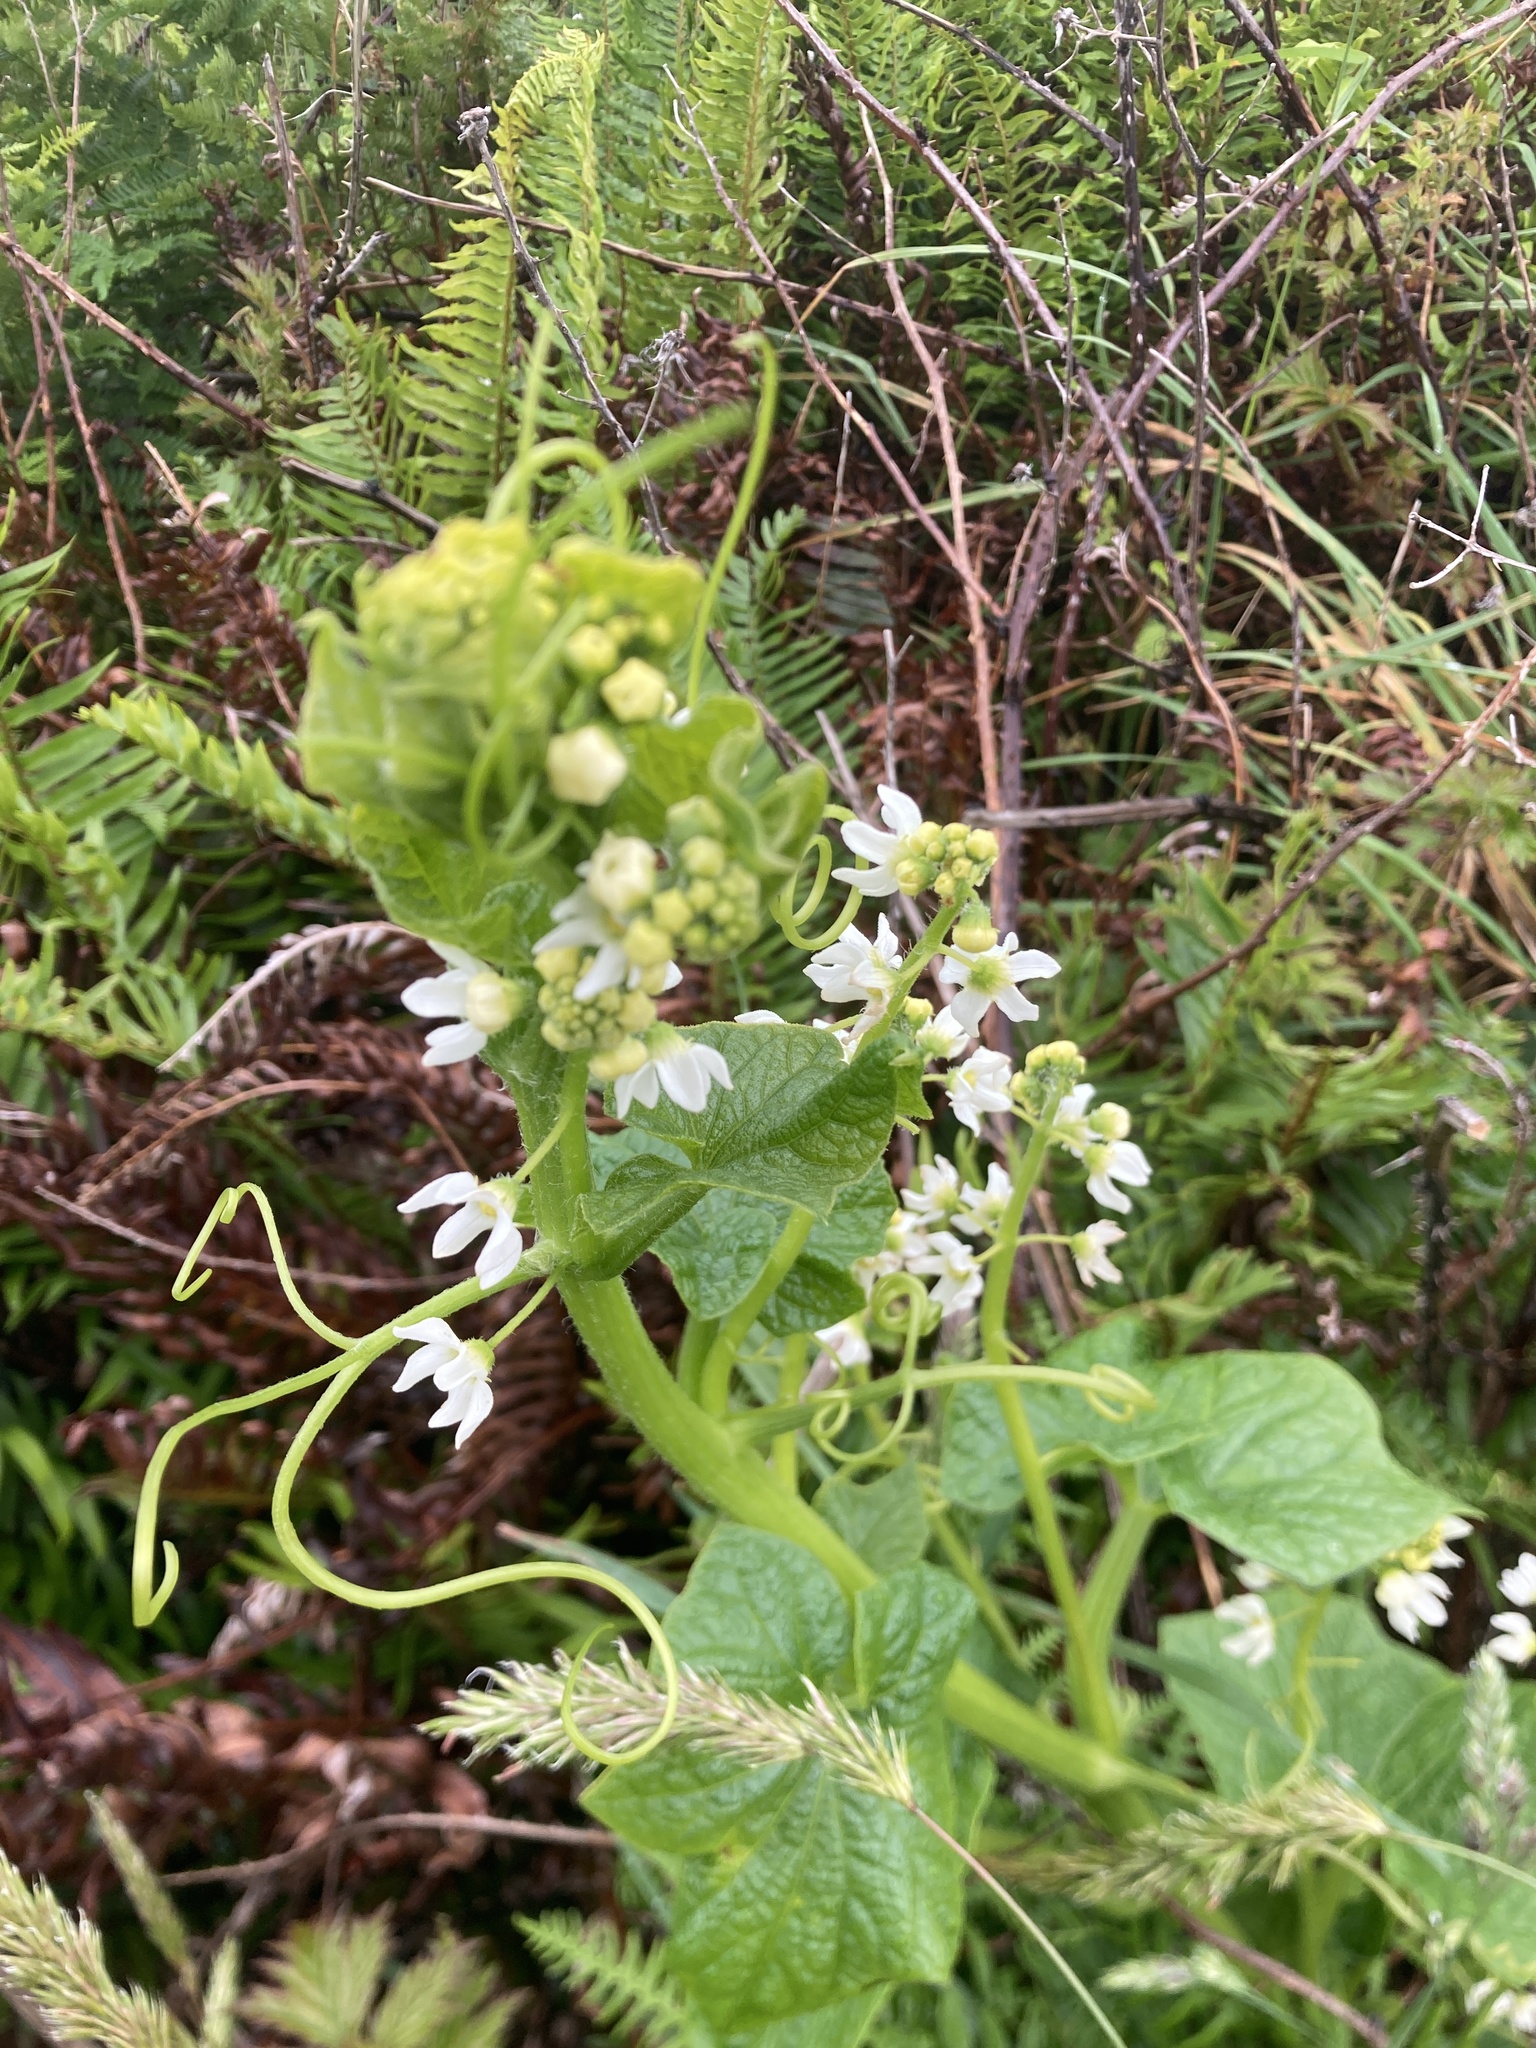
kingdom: Plantae
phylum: Tracheophyta
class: Magnoliopsida
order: Cucurbitales
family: Cucurbitaceae
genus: Marah
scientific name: Marah oregana
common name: Coastal manroot
